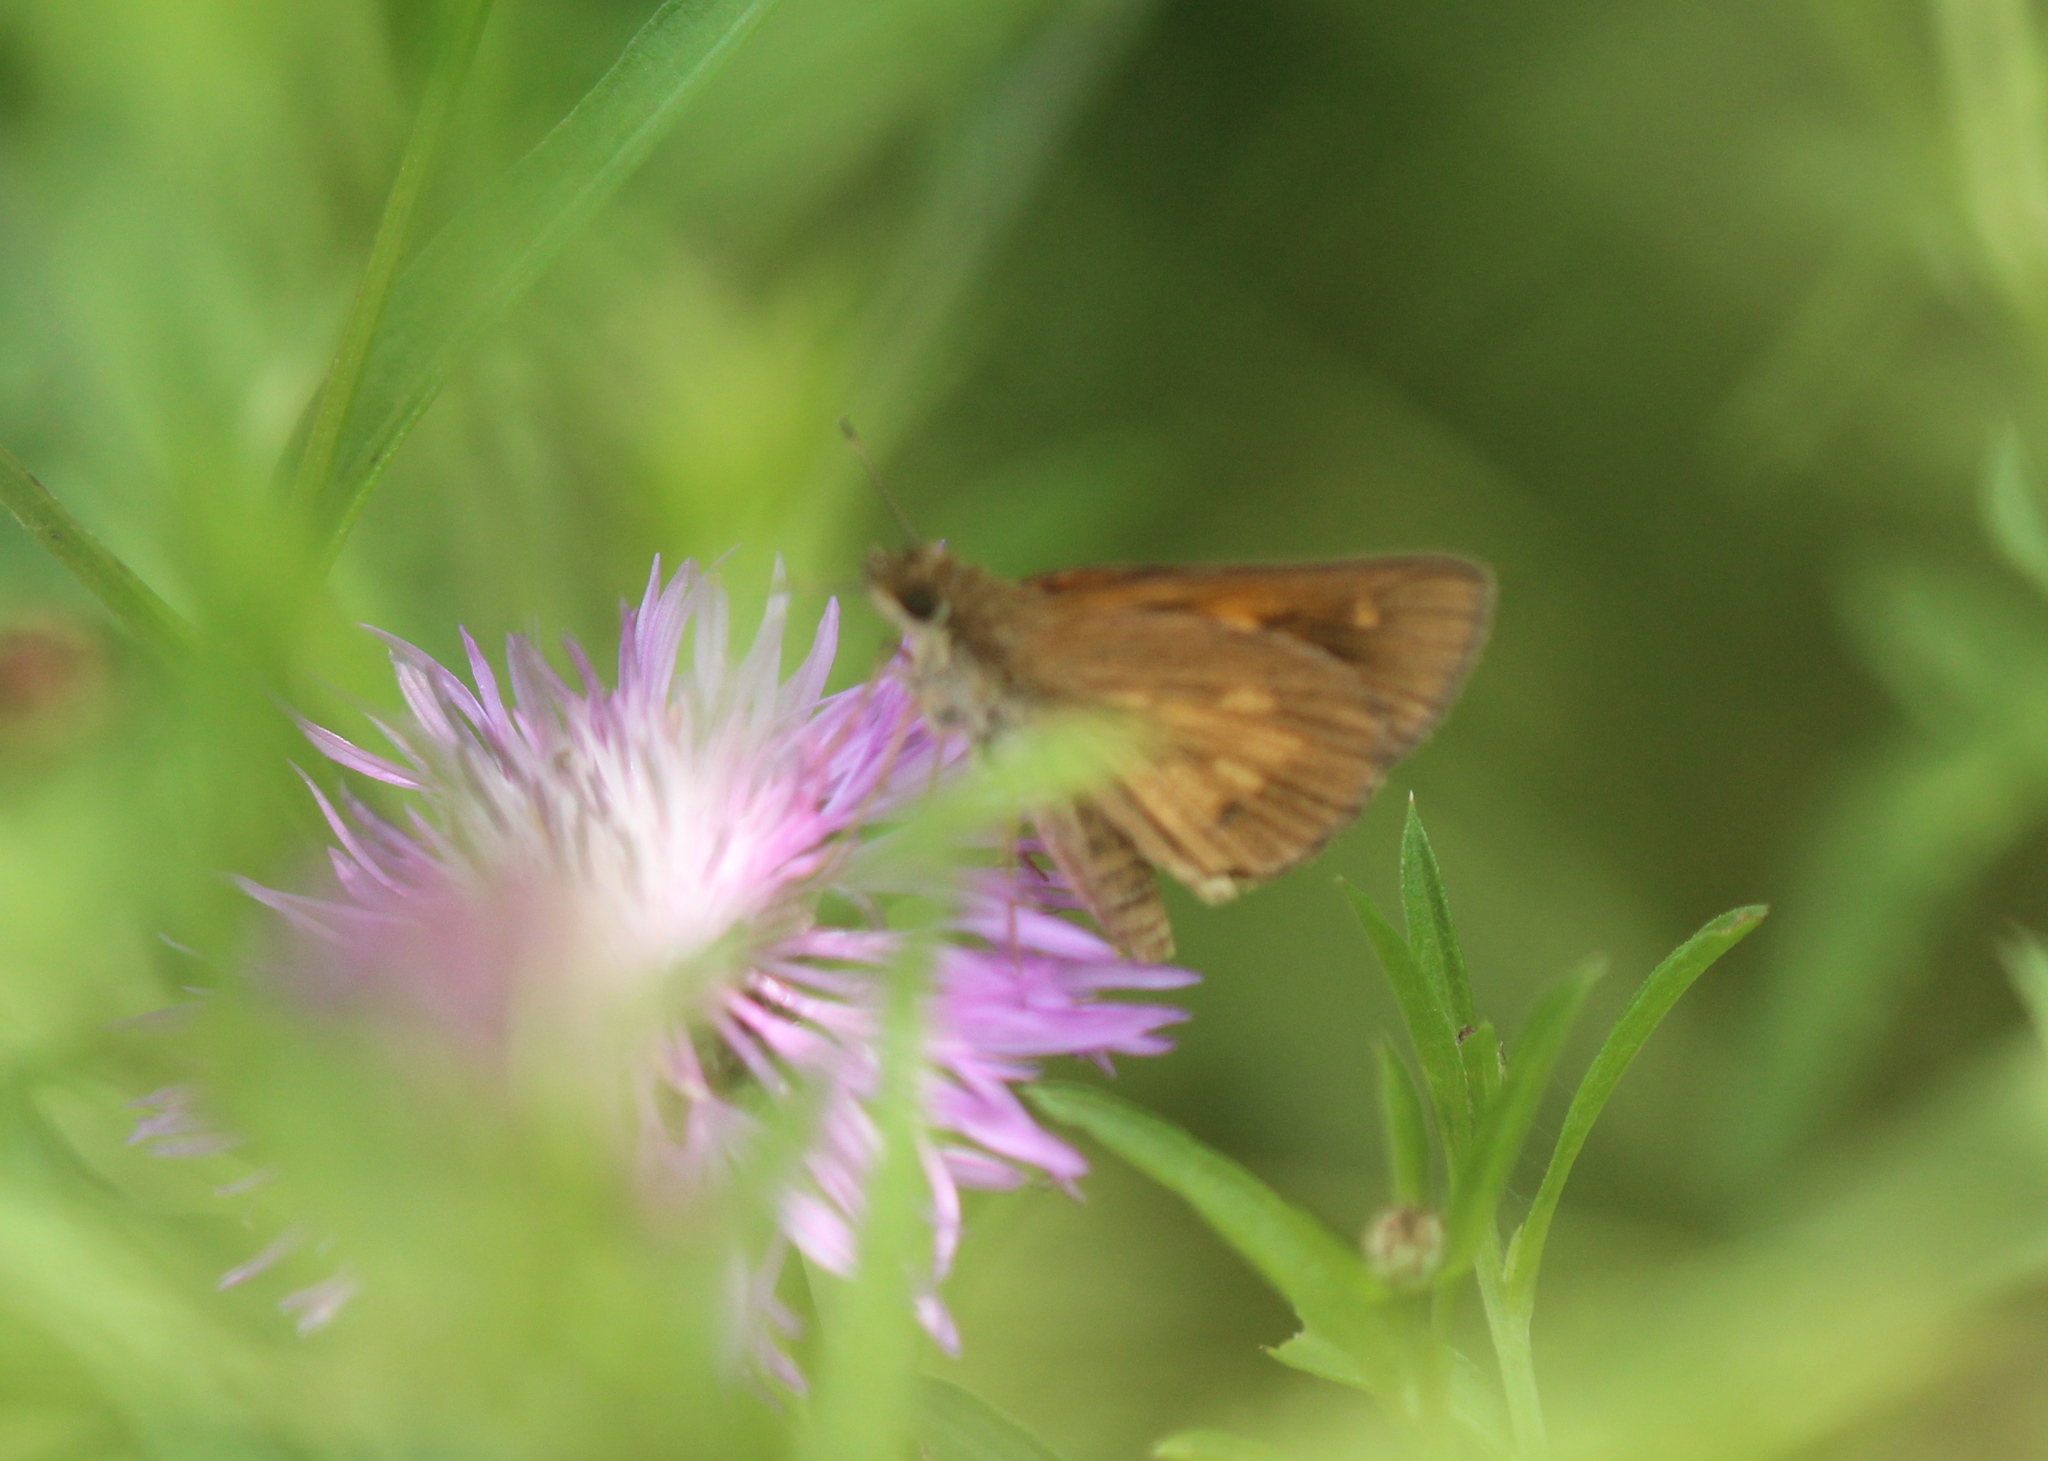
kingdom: Animalia
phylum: Arthropoda
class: Insecta
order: Lepidoptera
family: Hesperiidae
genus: Poanes
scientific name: Poanes viator
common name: Broad-winged skipper
